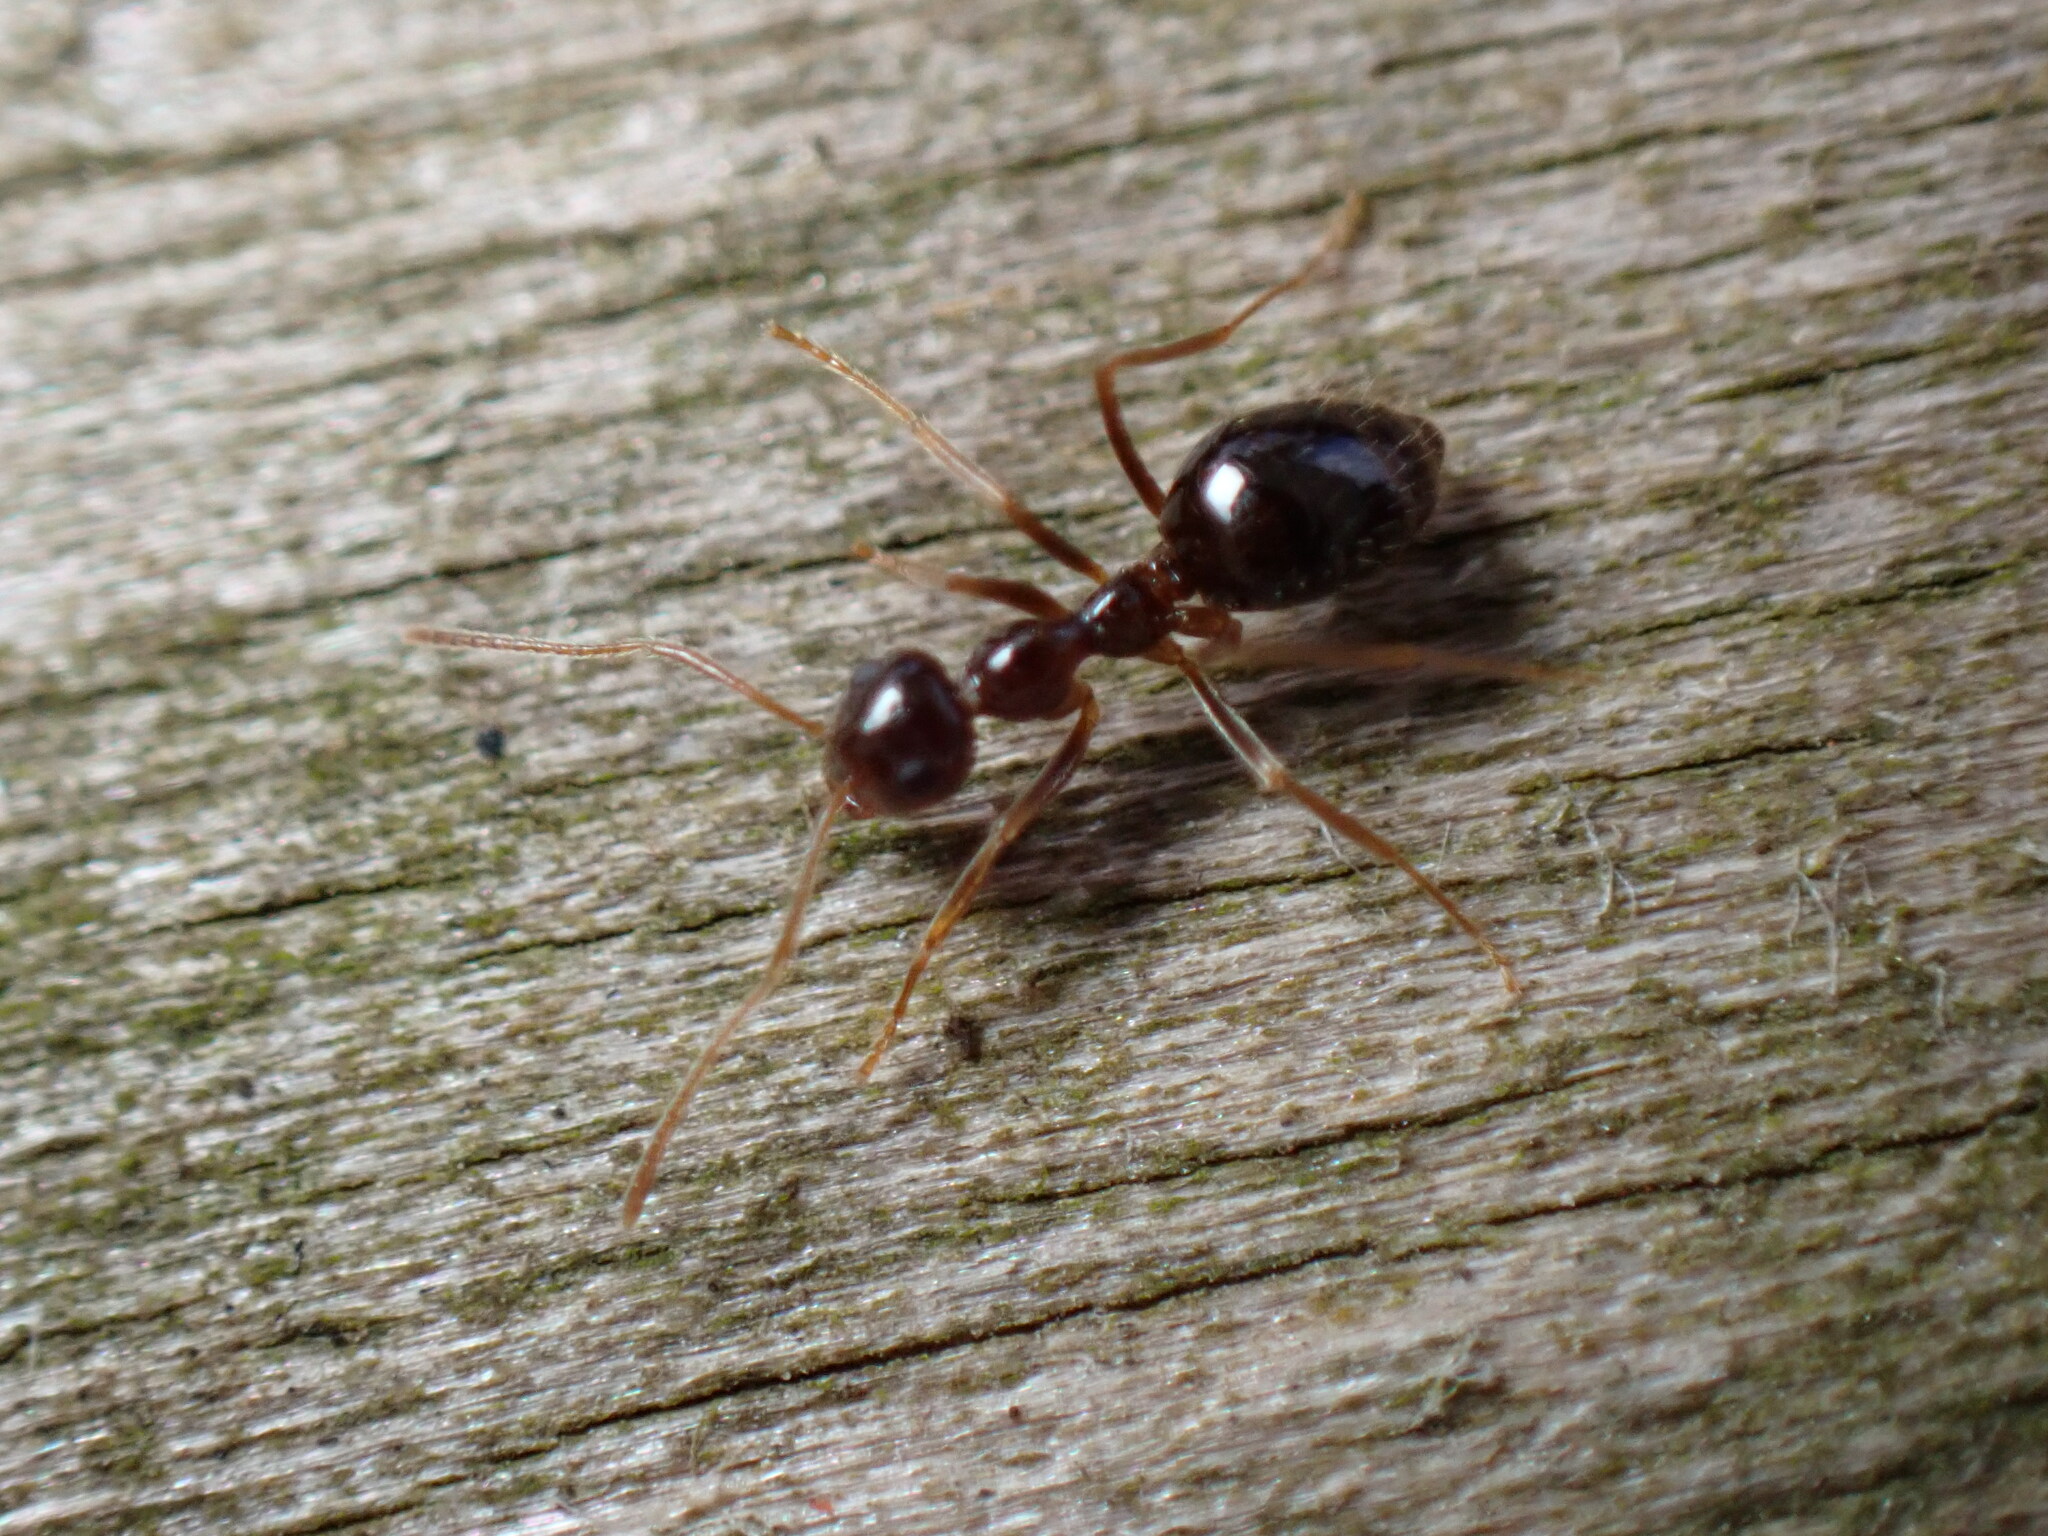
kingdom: Animalia
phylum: Arthropoda
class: Insecta
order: Hymenoptera
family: Formicidae
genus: Prenolepis
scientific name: Prenolepis imparis
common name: Small honey ant
